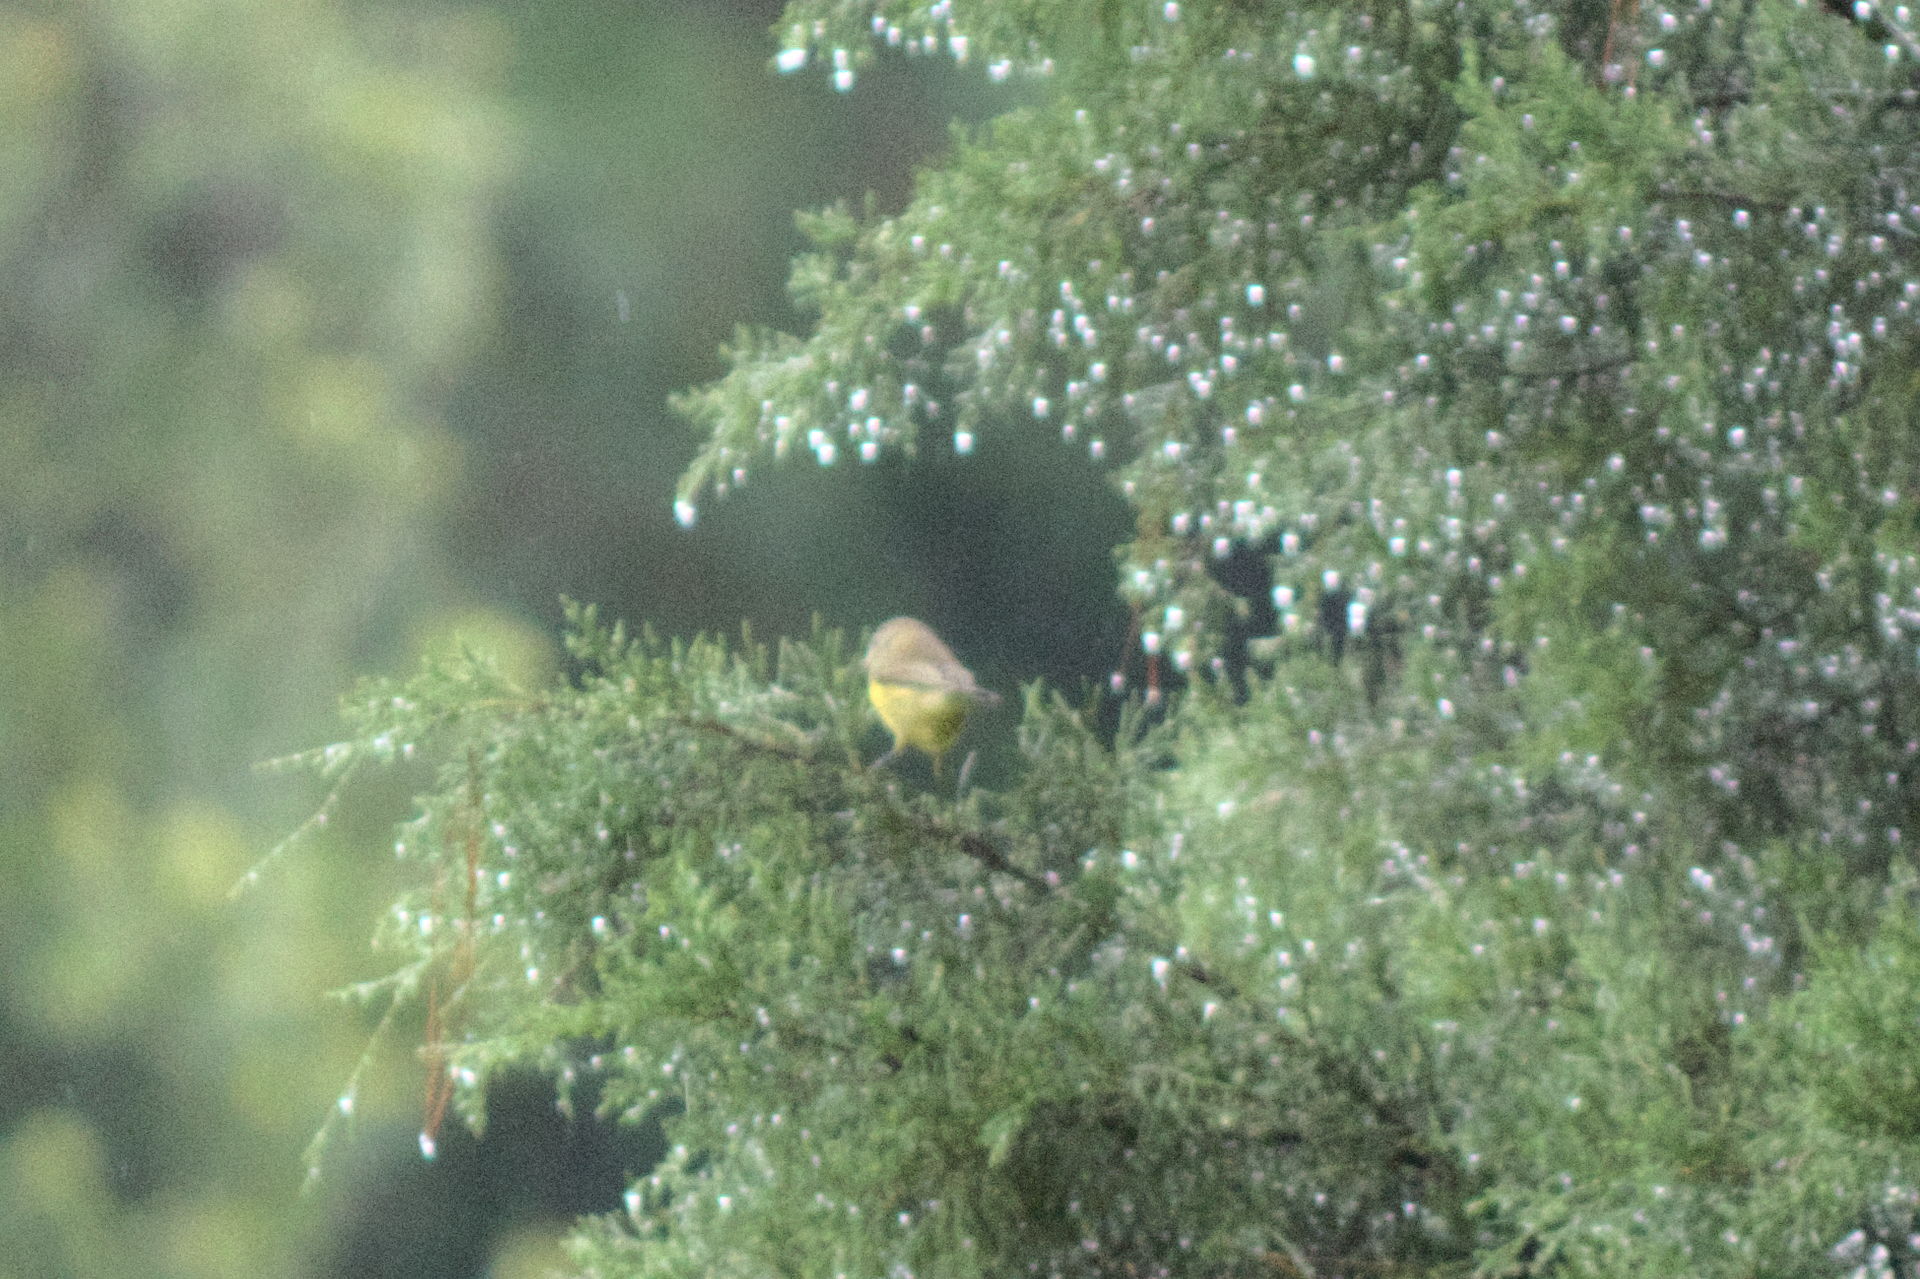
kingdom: Animalia
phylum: Chordata
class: Aves
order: Passeriformes
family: Parulidae
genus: Geothlypis
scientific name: Geothlypis trichas
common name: Common yellowthroat
